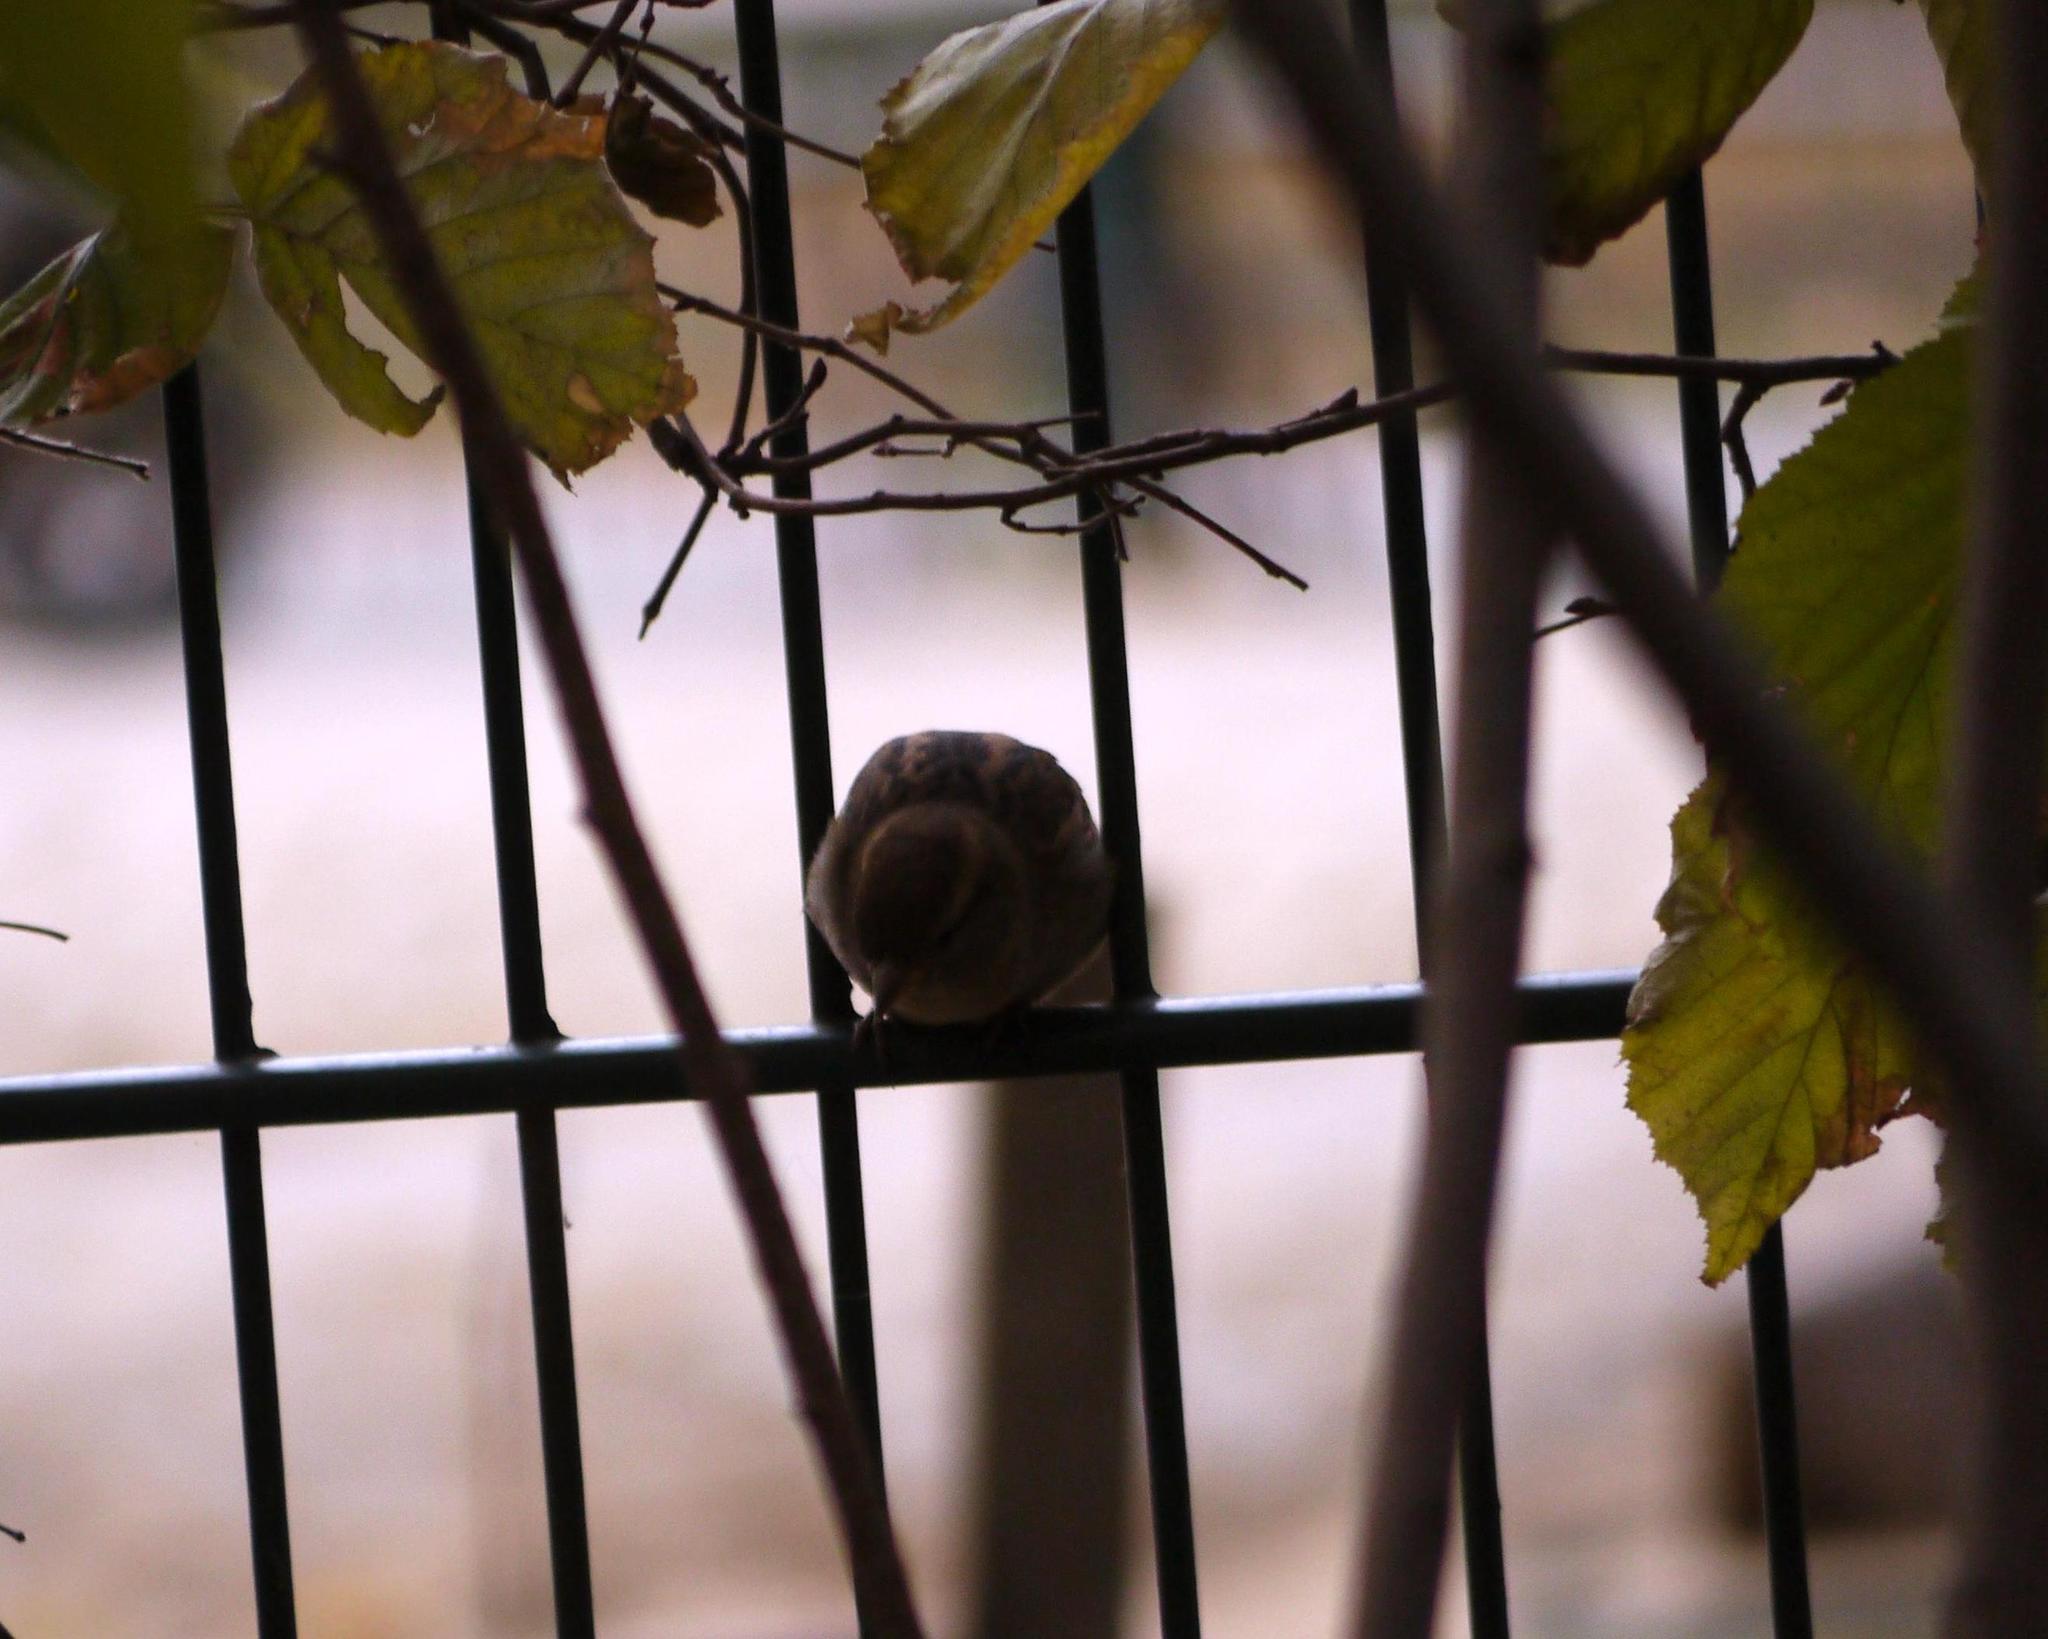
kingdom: Animalia
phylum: Chordata
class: Aves
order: Passeriformes
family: Passeridae
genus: Passer
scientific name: Passer domesticus
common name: House sparrow
